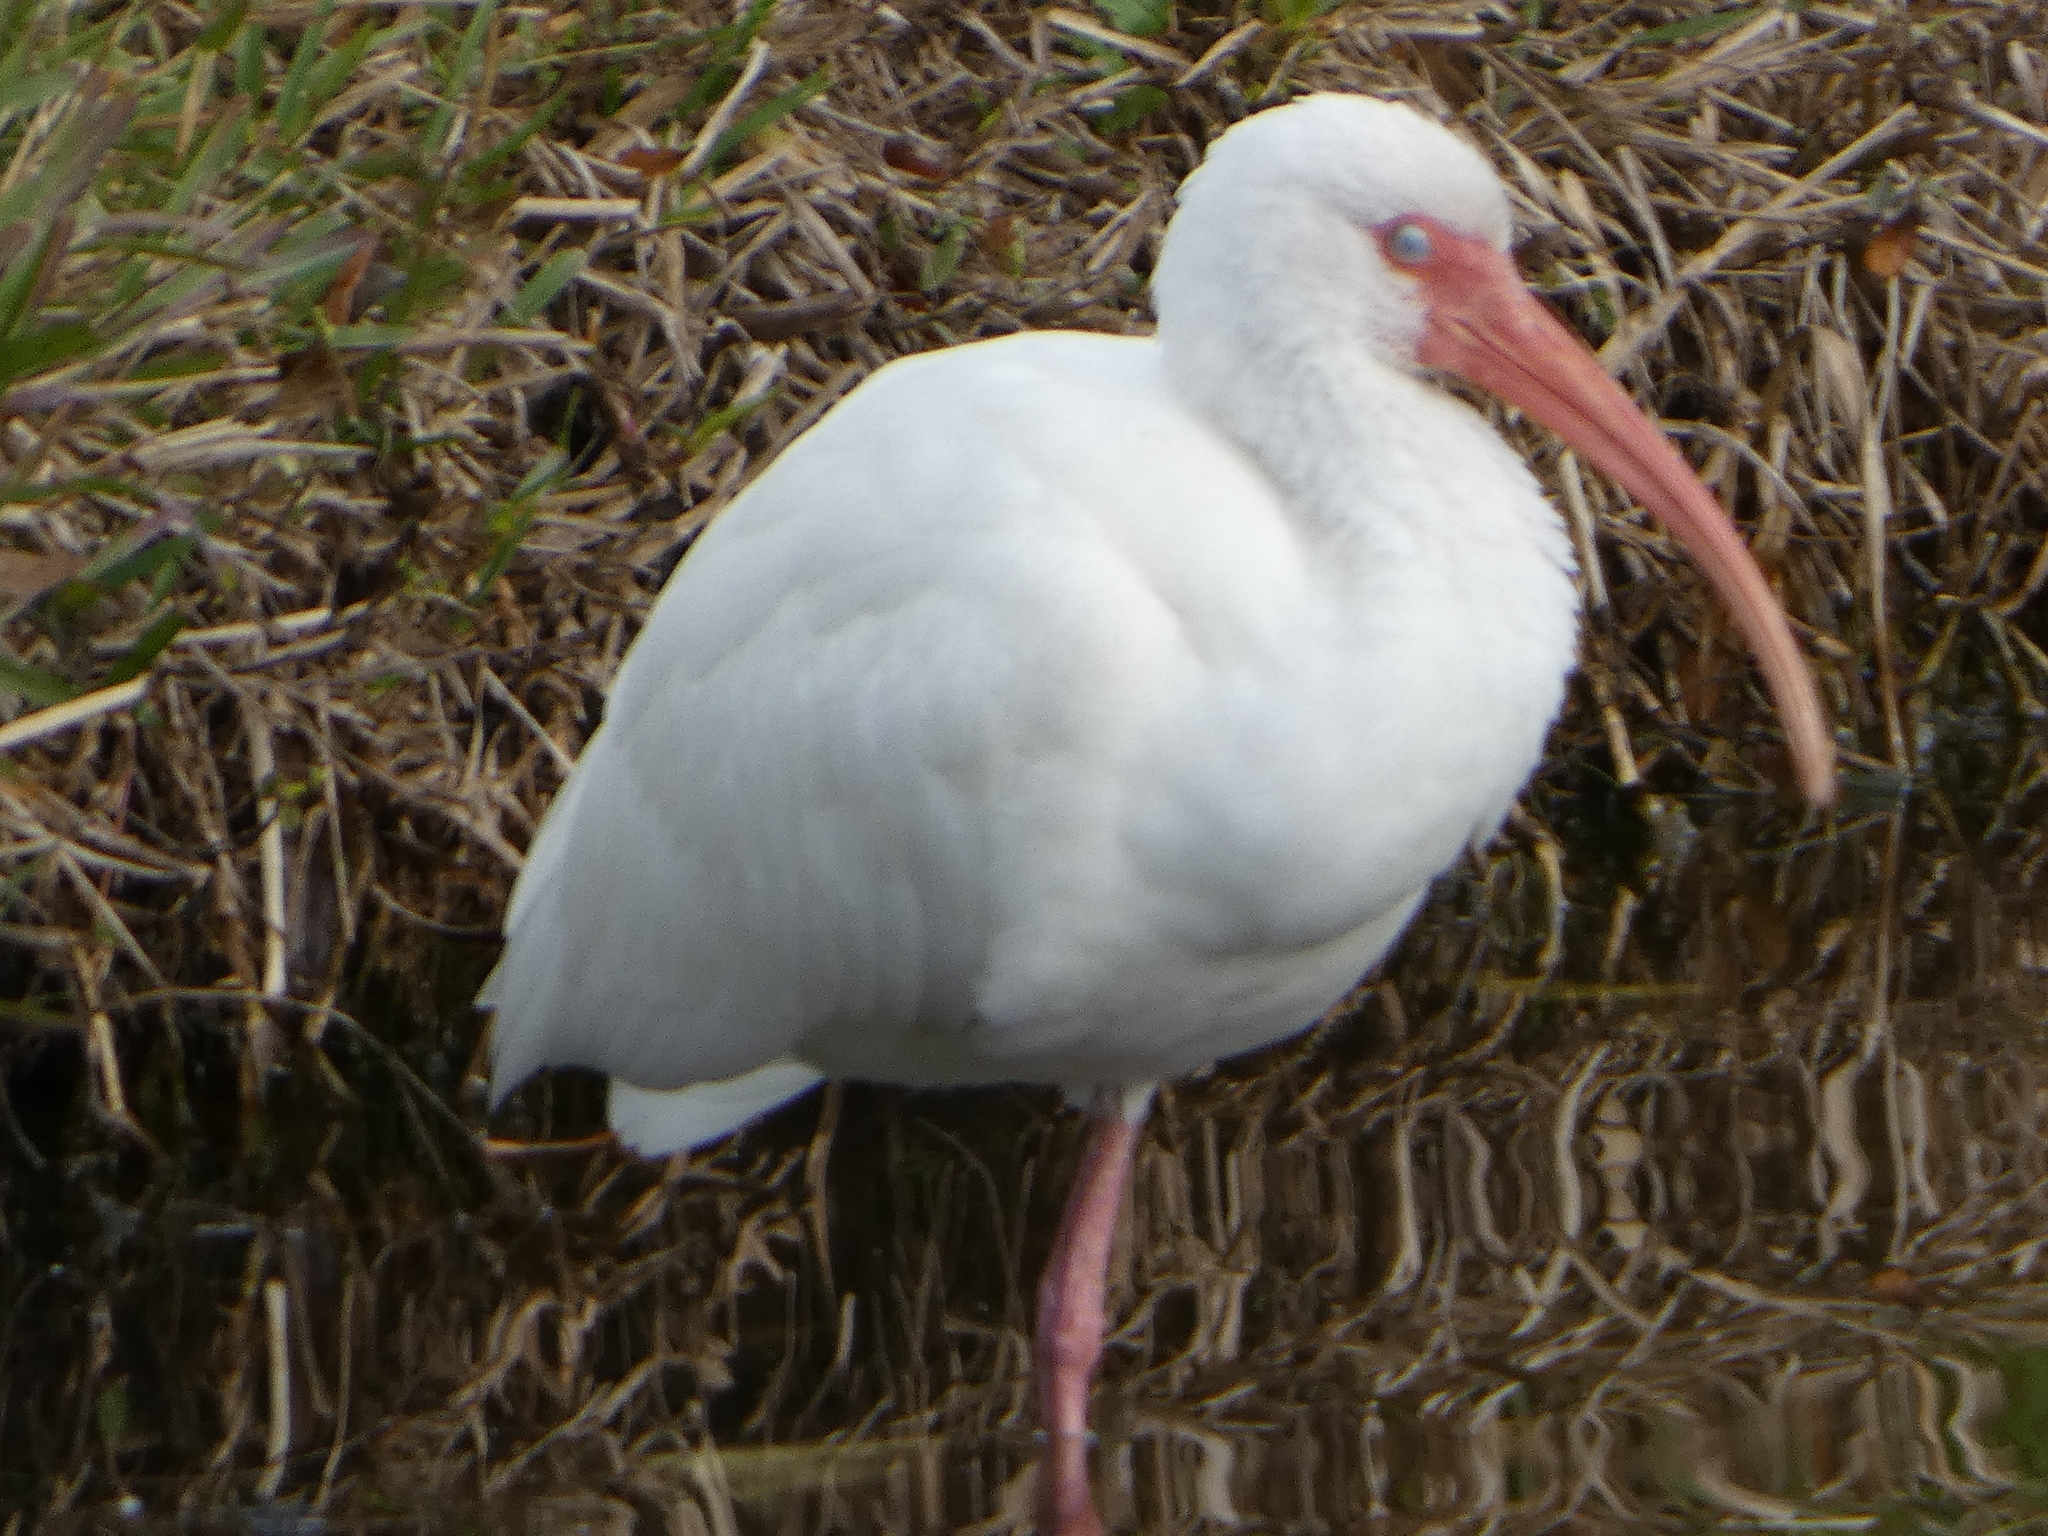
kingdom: Animalia
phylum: Chordata
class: Aves
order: Pelecaniformes
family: Threskiornithidae
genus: Eudocimus
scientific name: Eudocimus albus
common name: White ibis
